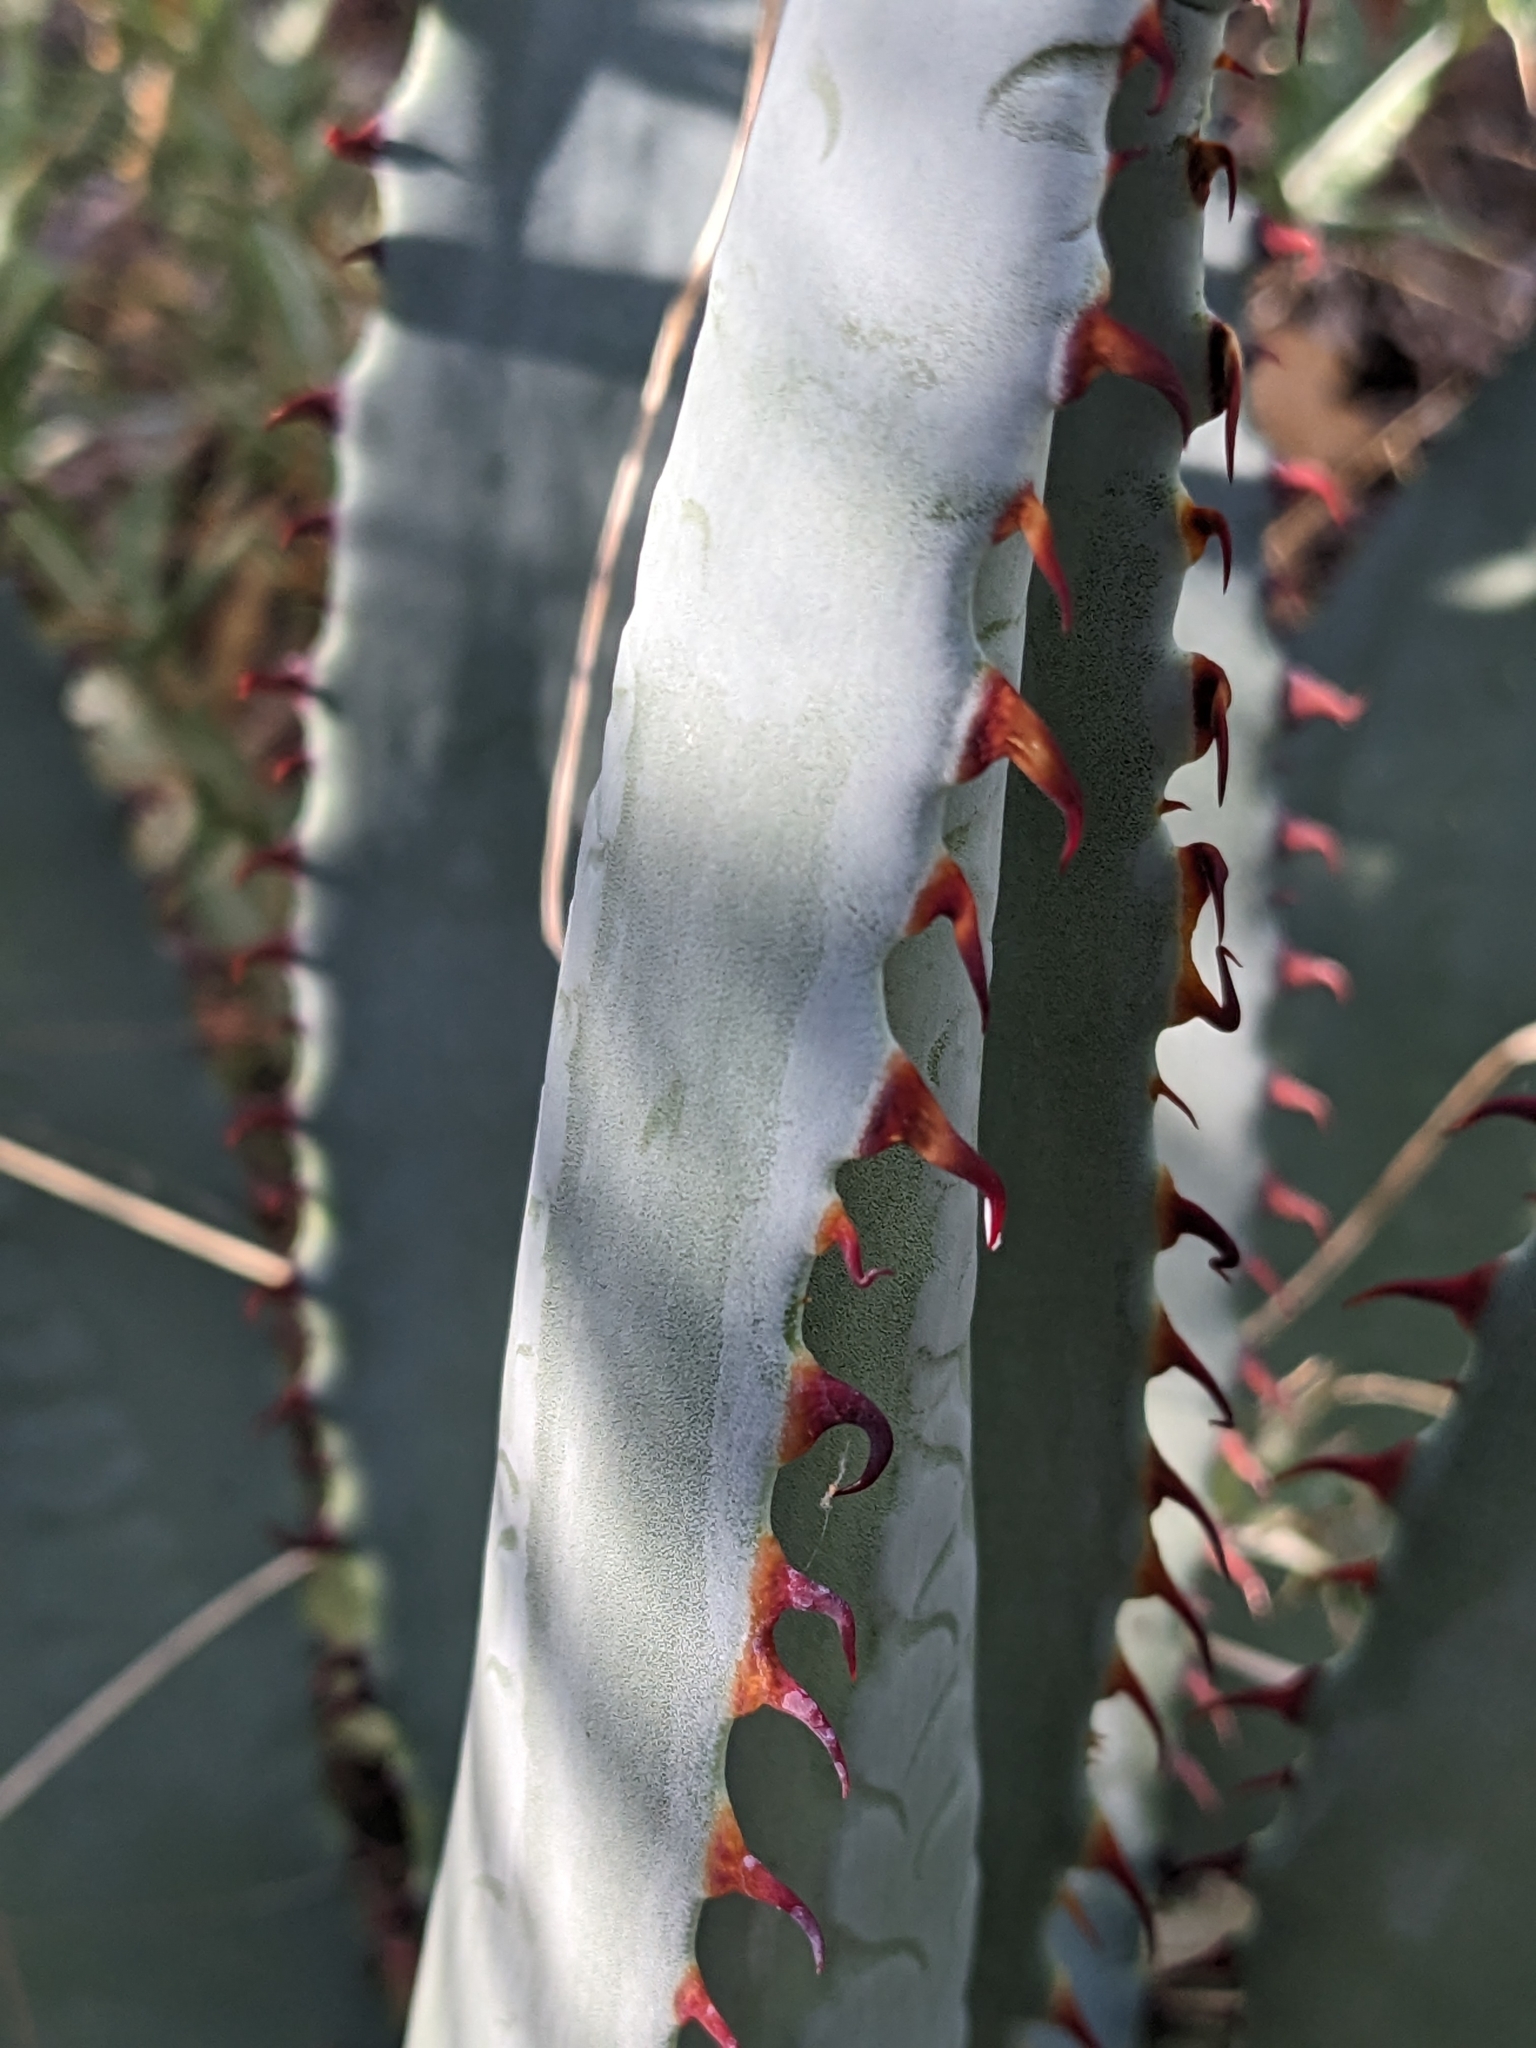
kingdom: Plantae
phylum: Tracheophyta
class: Liliopsida
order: Asparagales
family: Asparagaceae
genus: Agave
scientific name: Agave palmeri
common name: Palmer agave
